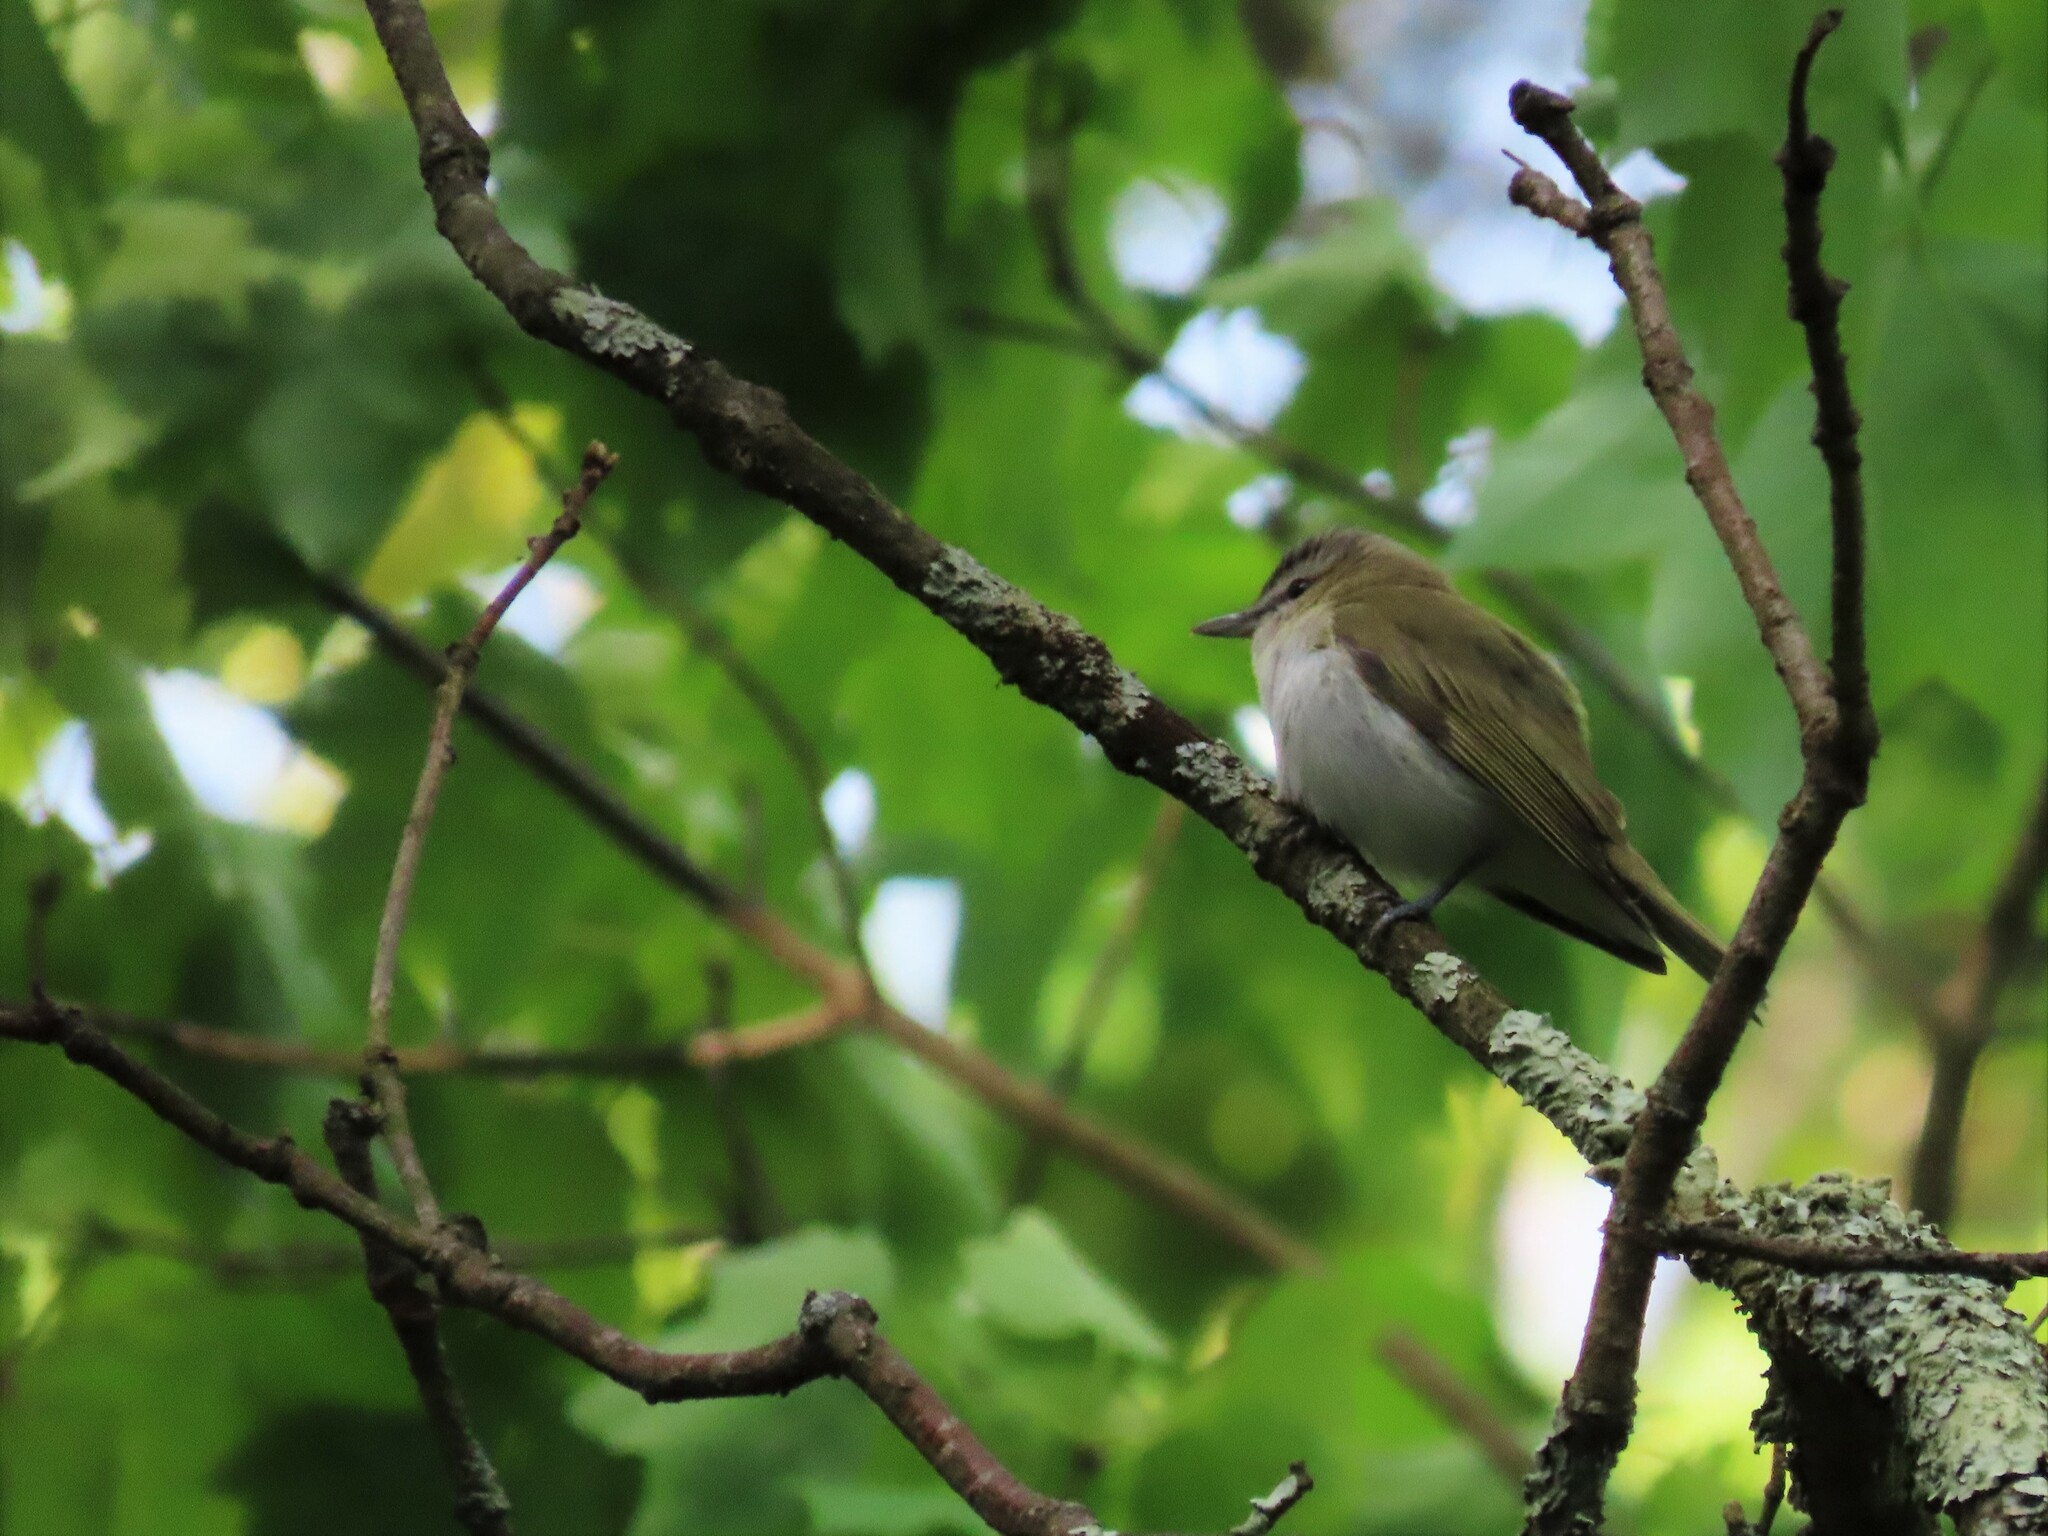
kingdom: Animalia
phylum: Chordata
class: Aves
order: Passeriformes
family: Vireonidae
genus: Vireo
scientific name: Vireo olivaceus
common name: Red-eyed vireo
